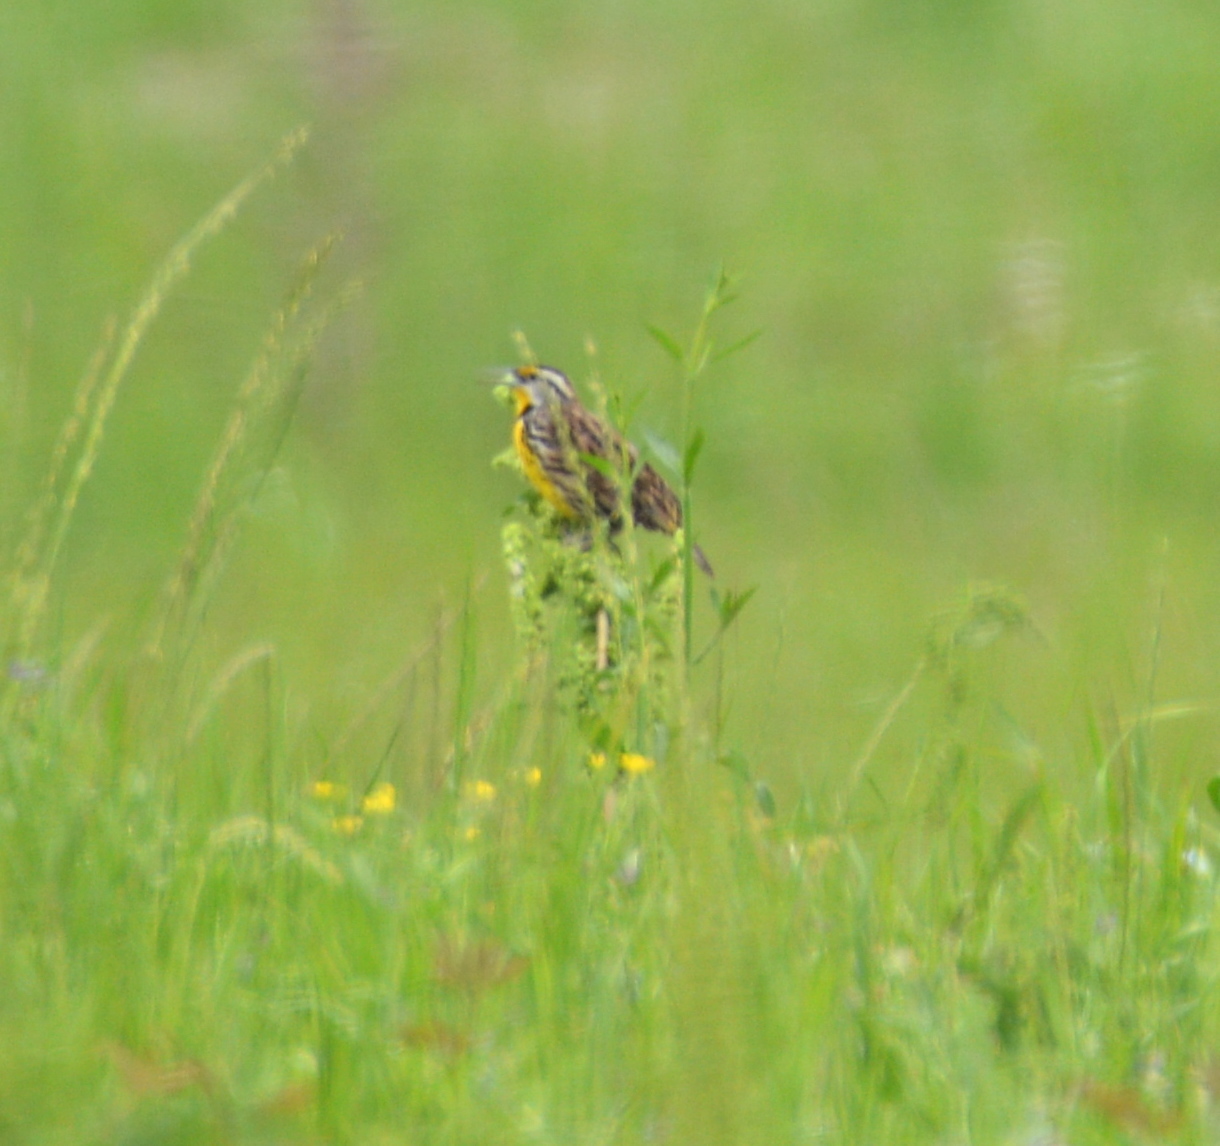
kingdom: Animalia
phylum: Chordata
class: Aves
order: Passeriformes
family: Icteridae
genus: Sturnella
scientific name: Sturnella magna
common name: Eastern meadowlark
